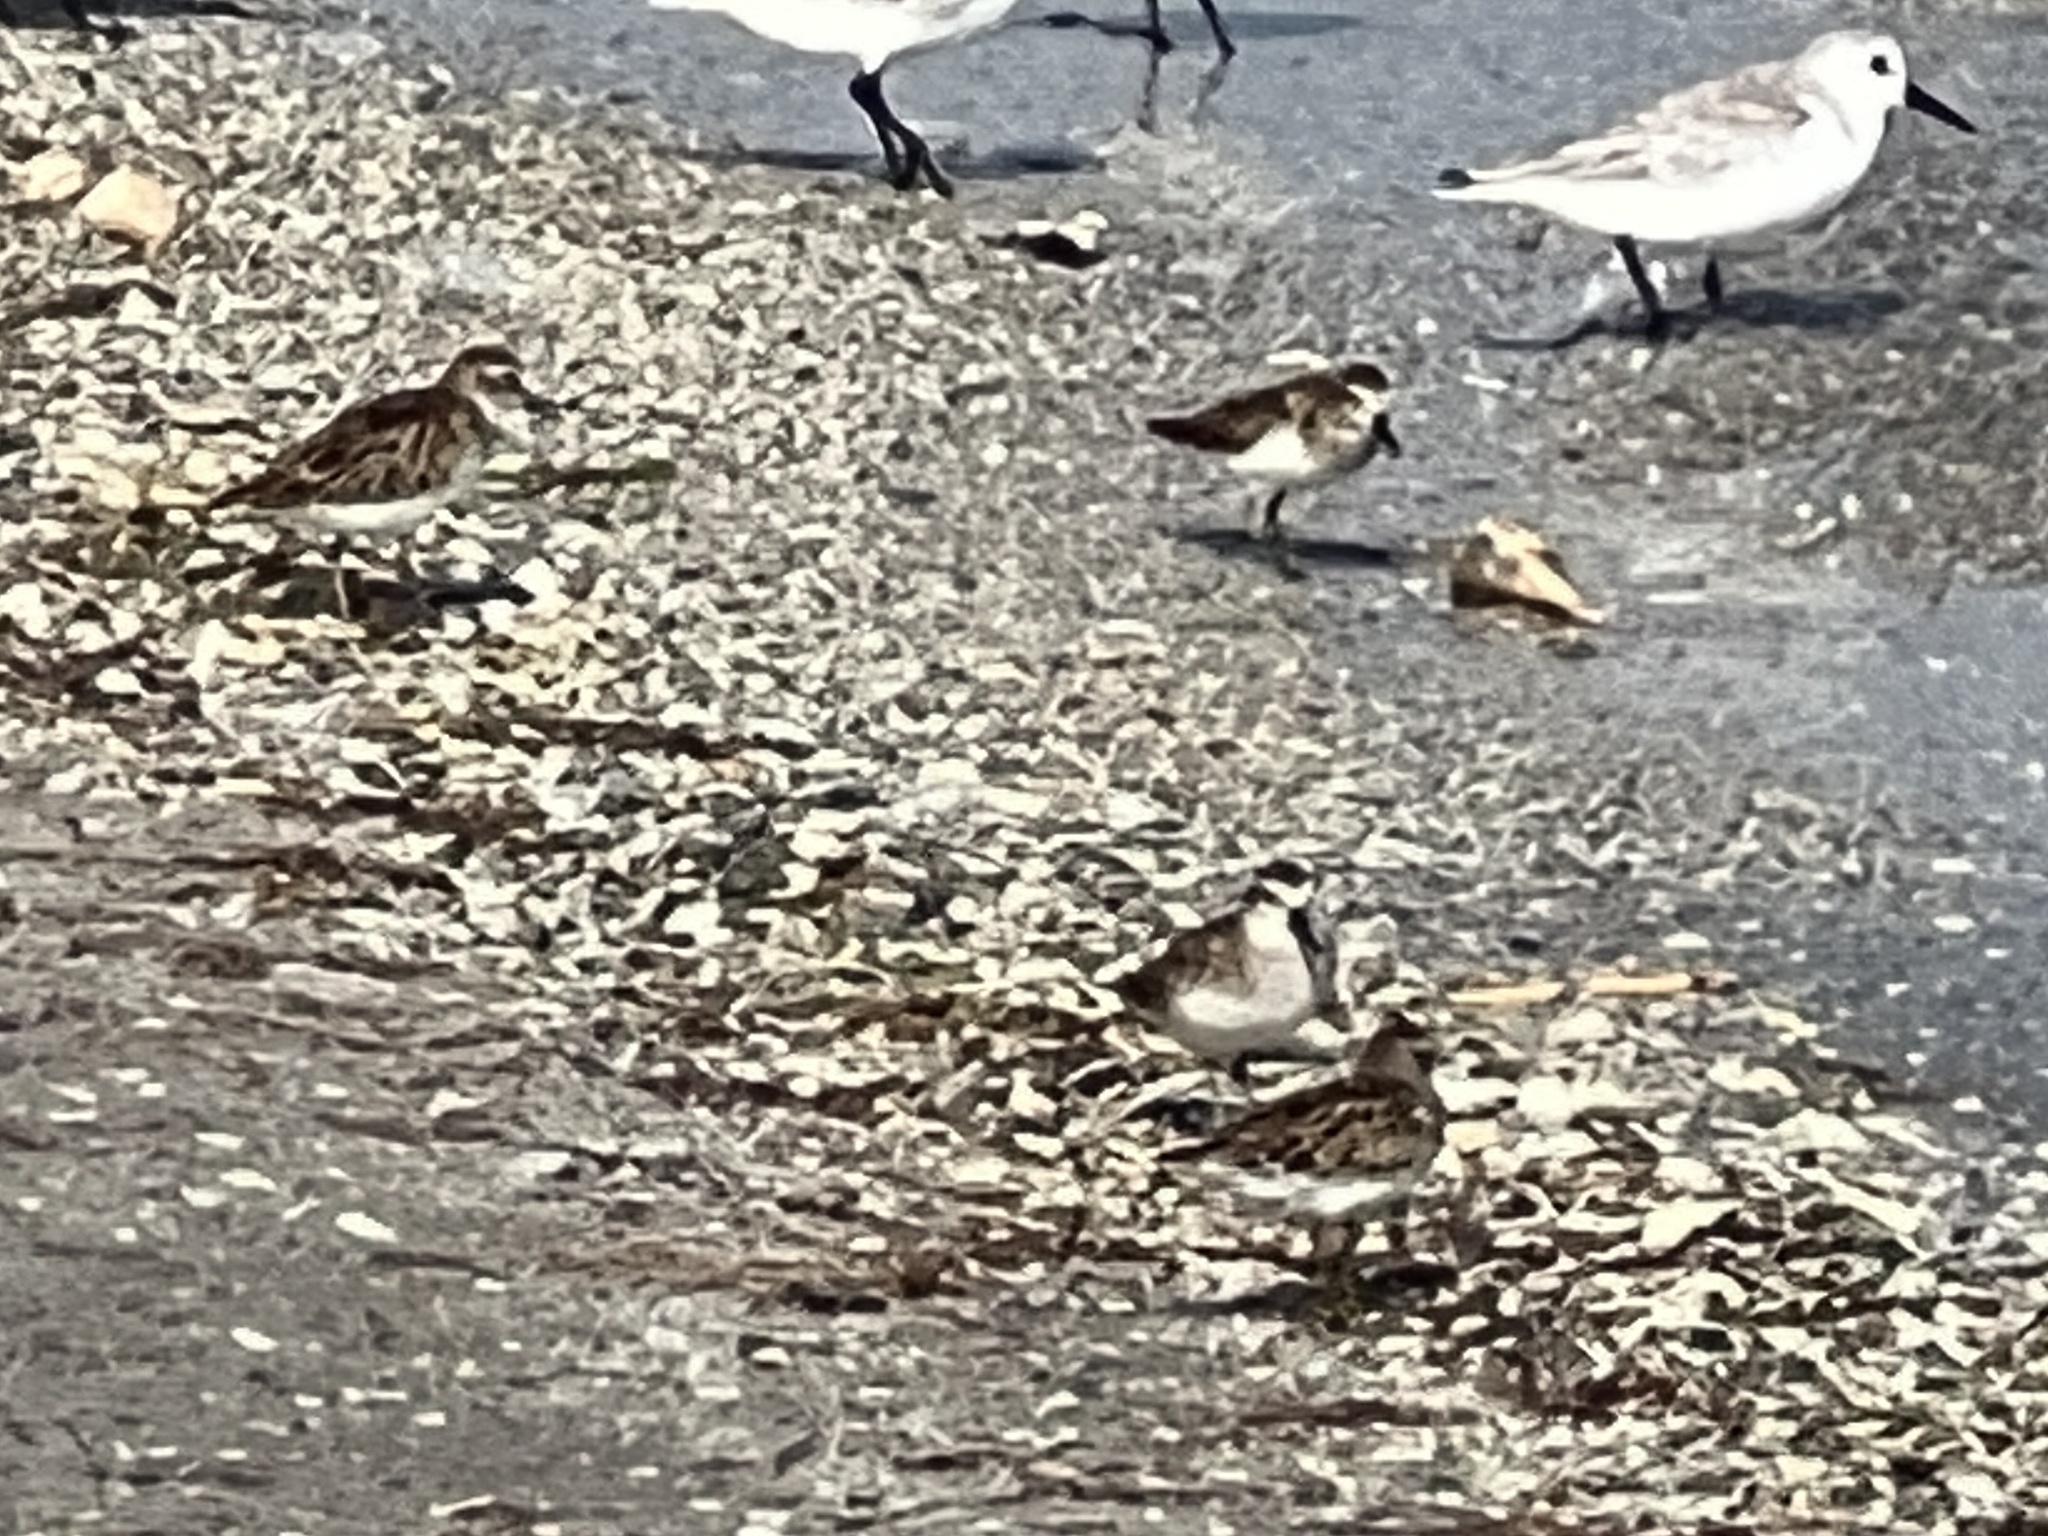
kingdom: Animalia
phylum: Chordata
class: Aves
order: Charadriiformes
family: Scolopacidae
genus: Calidris
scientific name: Calidris minutilla
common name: Least sandpiper
